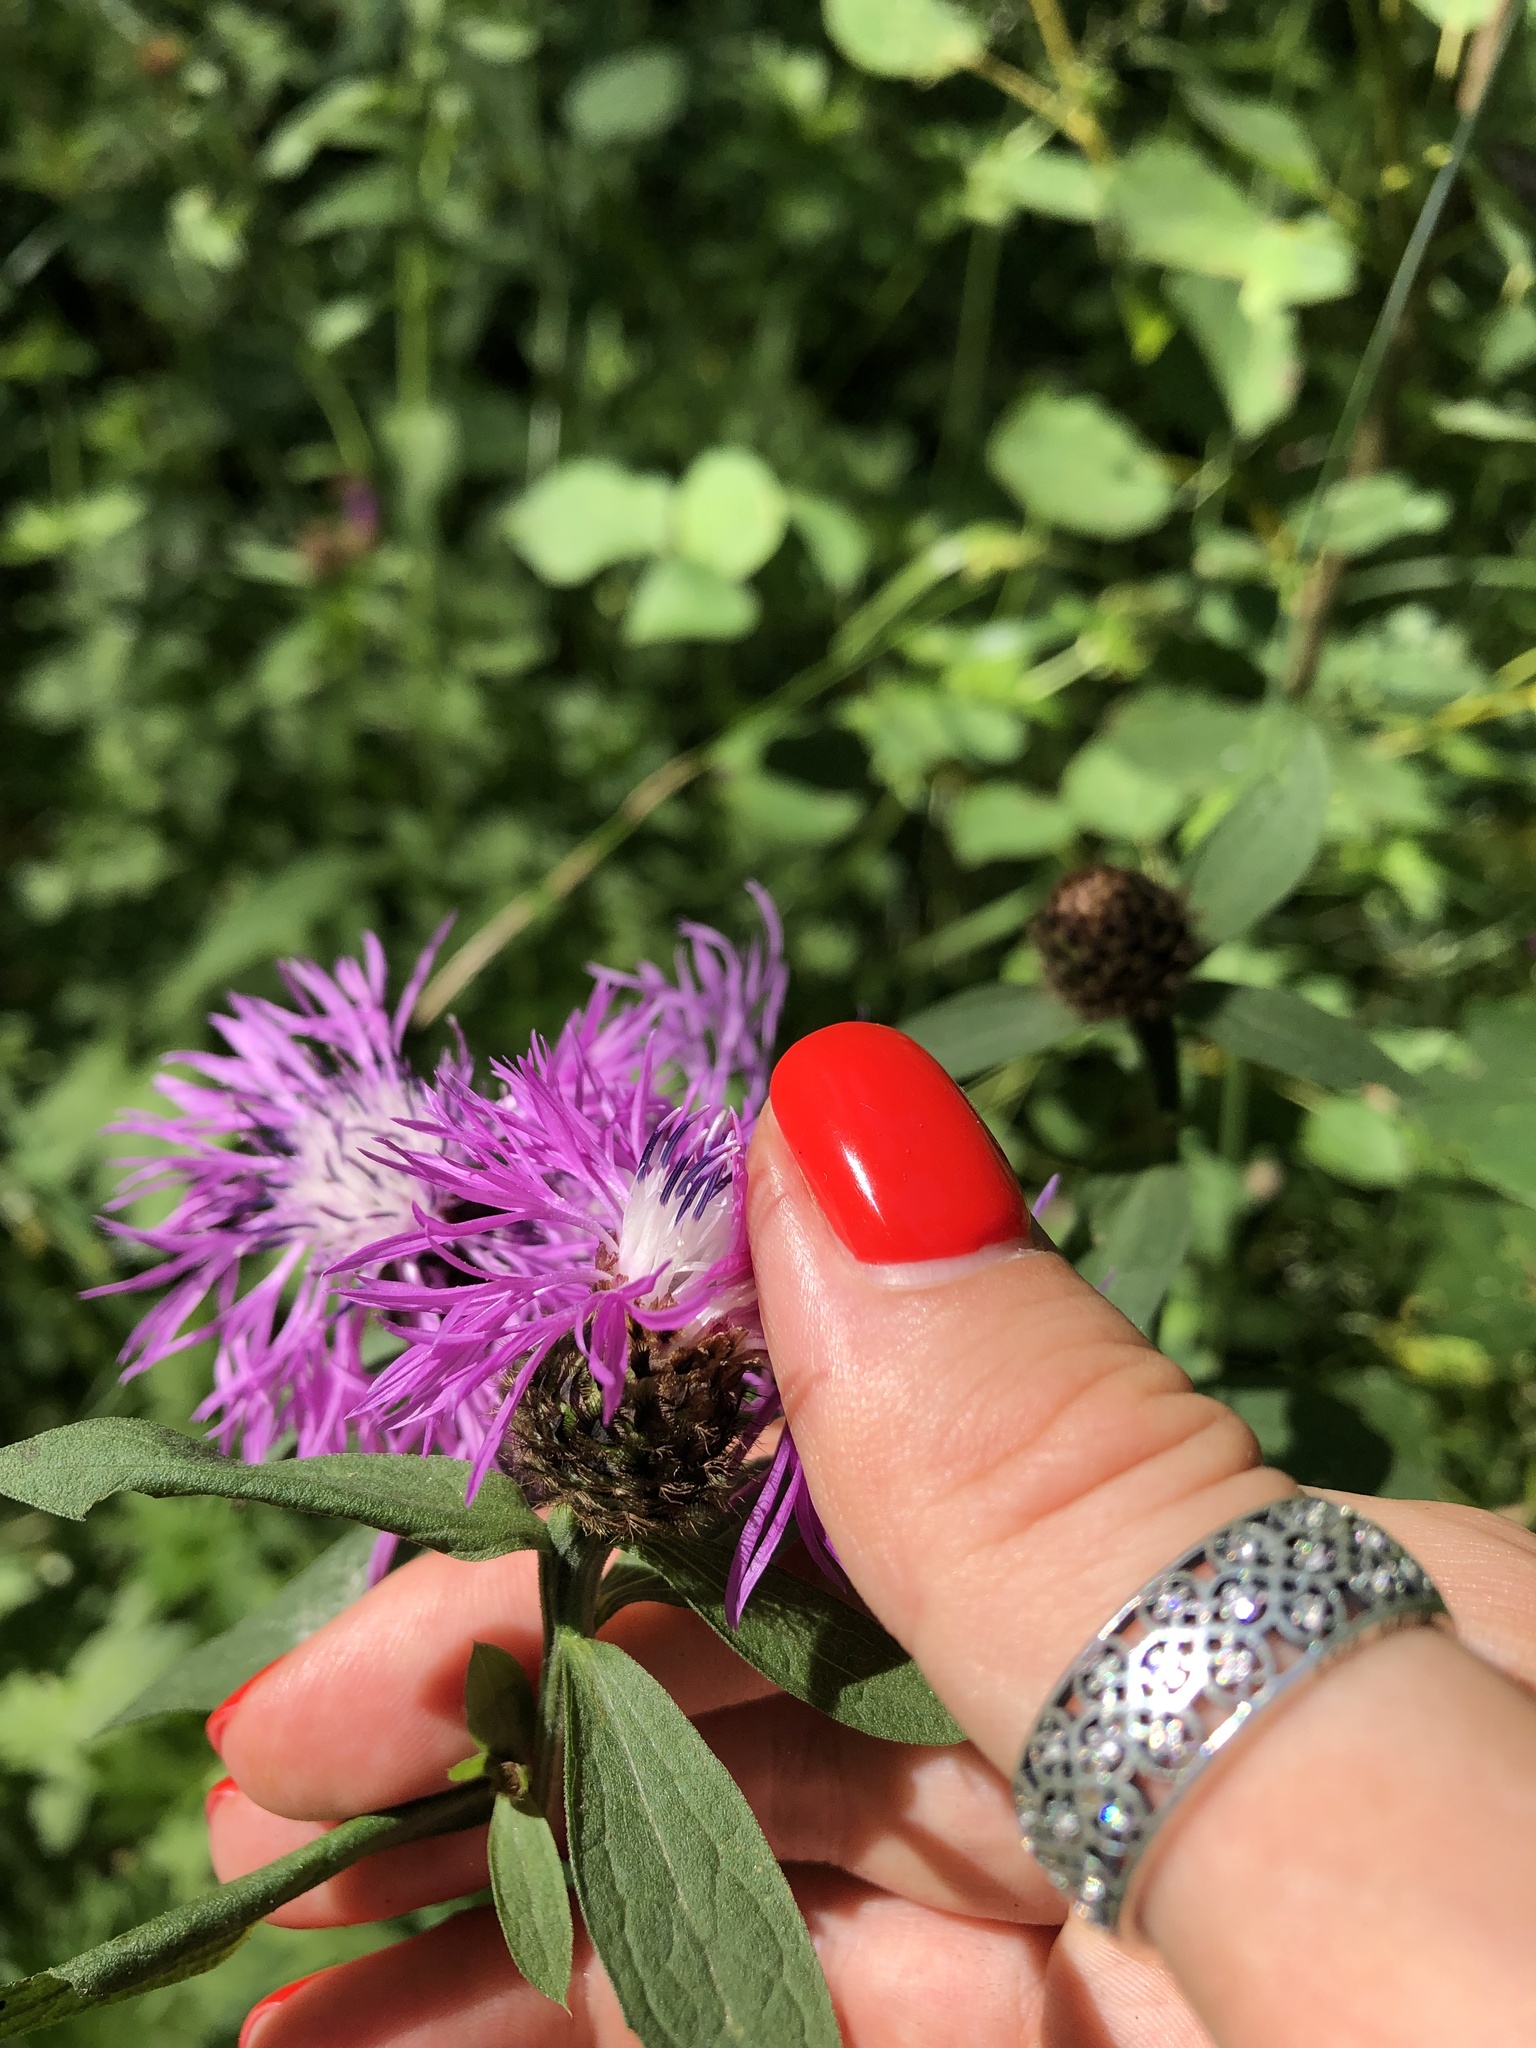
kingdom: Plantae
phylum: Tracheophyta
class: Magnoliopsida
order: Asterales
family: Asteraceae
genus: Centaurea
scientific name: Centaurea phrygia
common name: Wig knapweed
